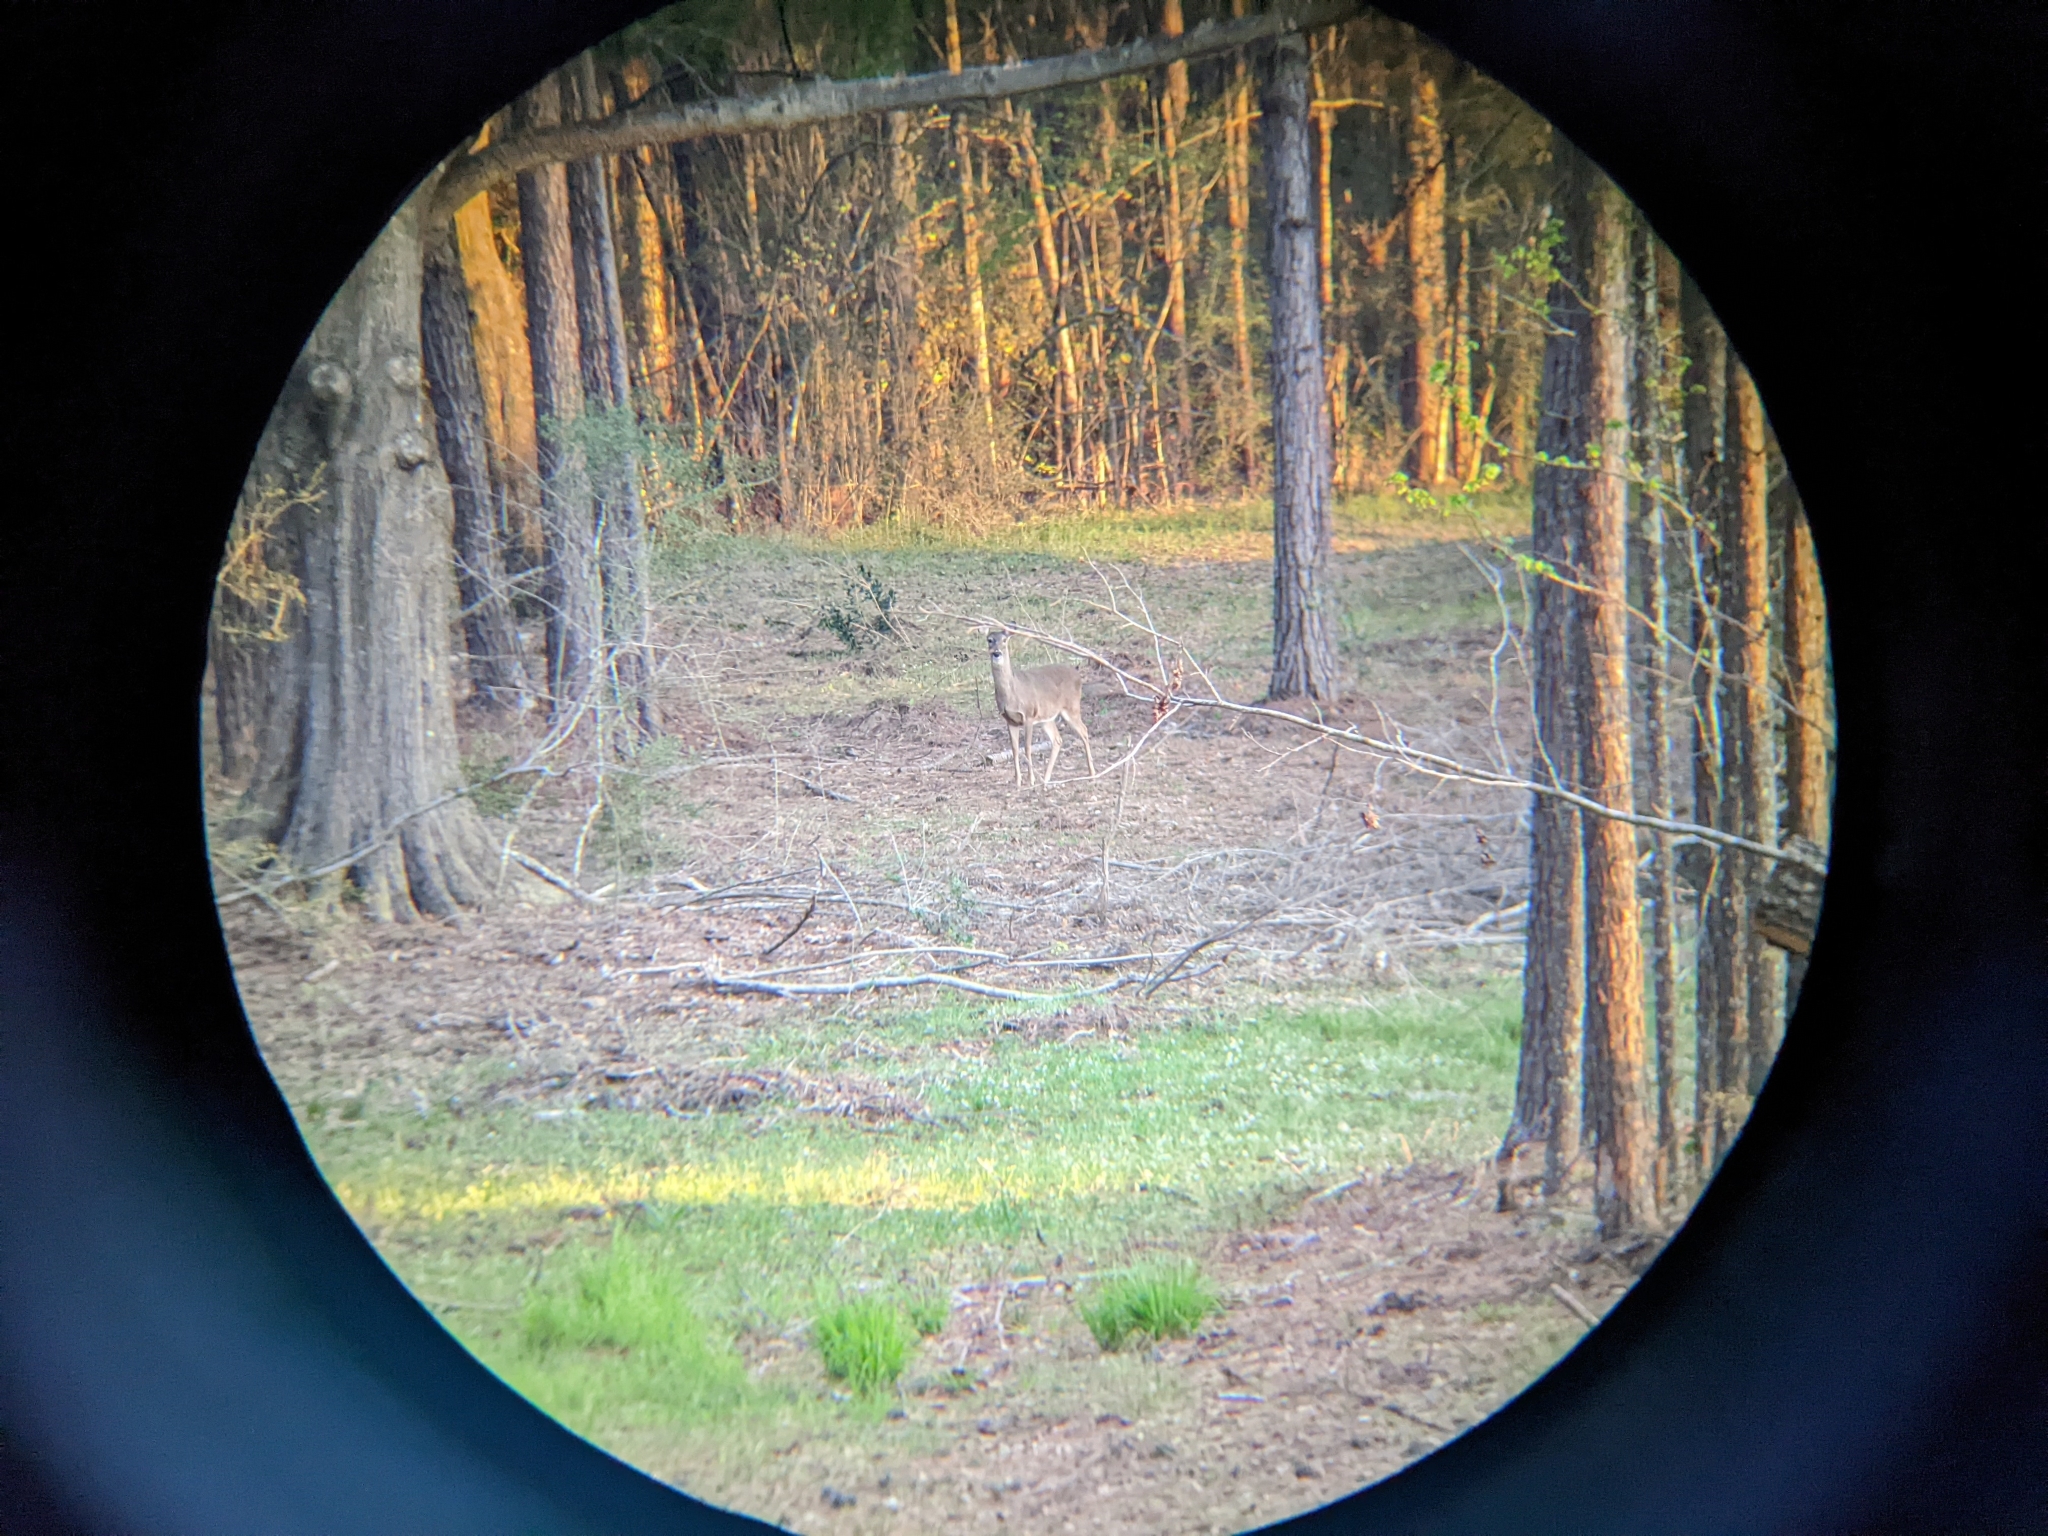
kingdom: Animalia
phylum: Chordata
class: Mammalia
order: Artiodactyla
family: Cervidae
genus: Odocoileus
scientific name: Odocoileus virginianus
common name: White-tailed deer
